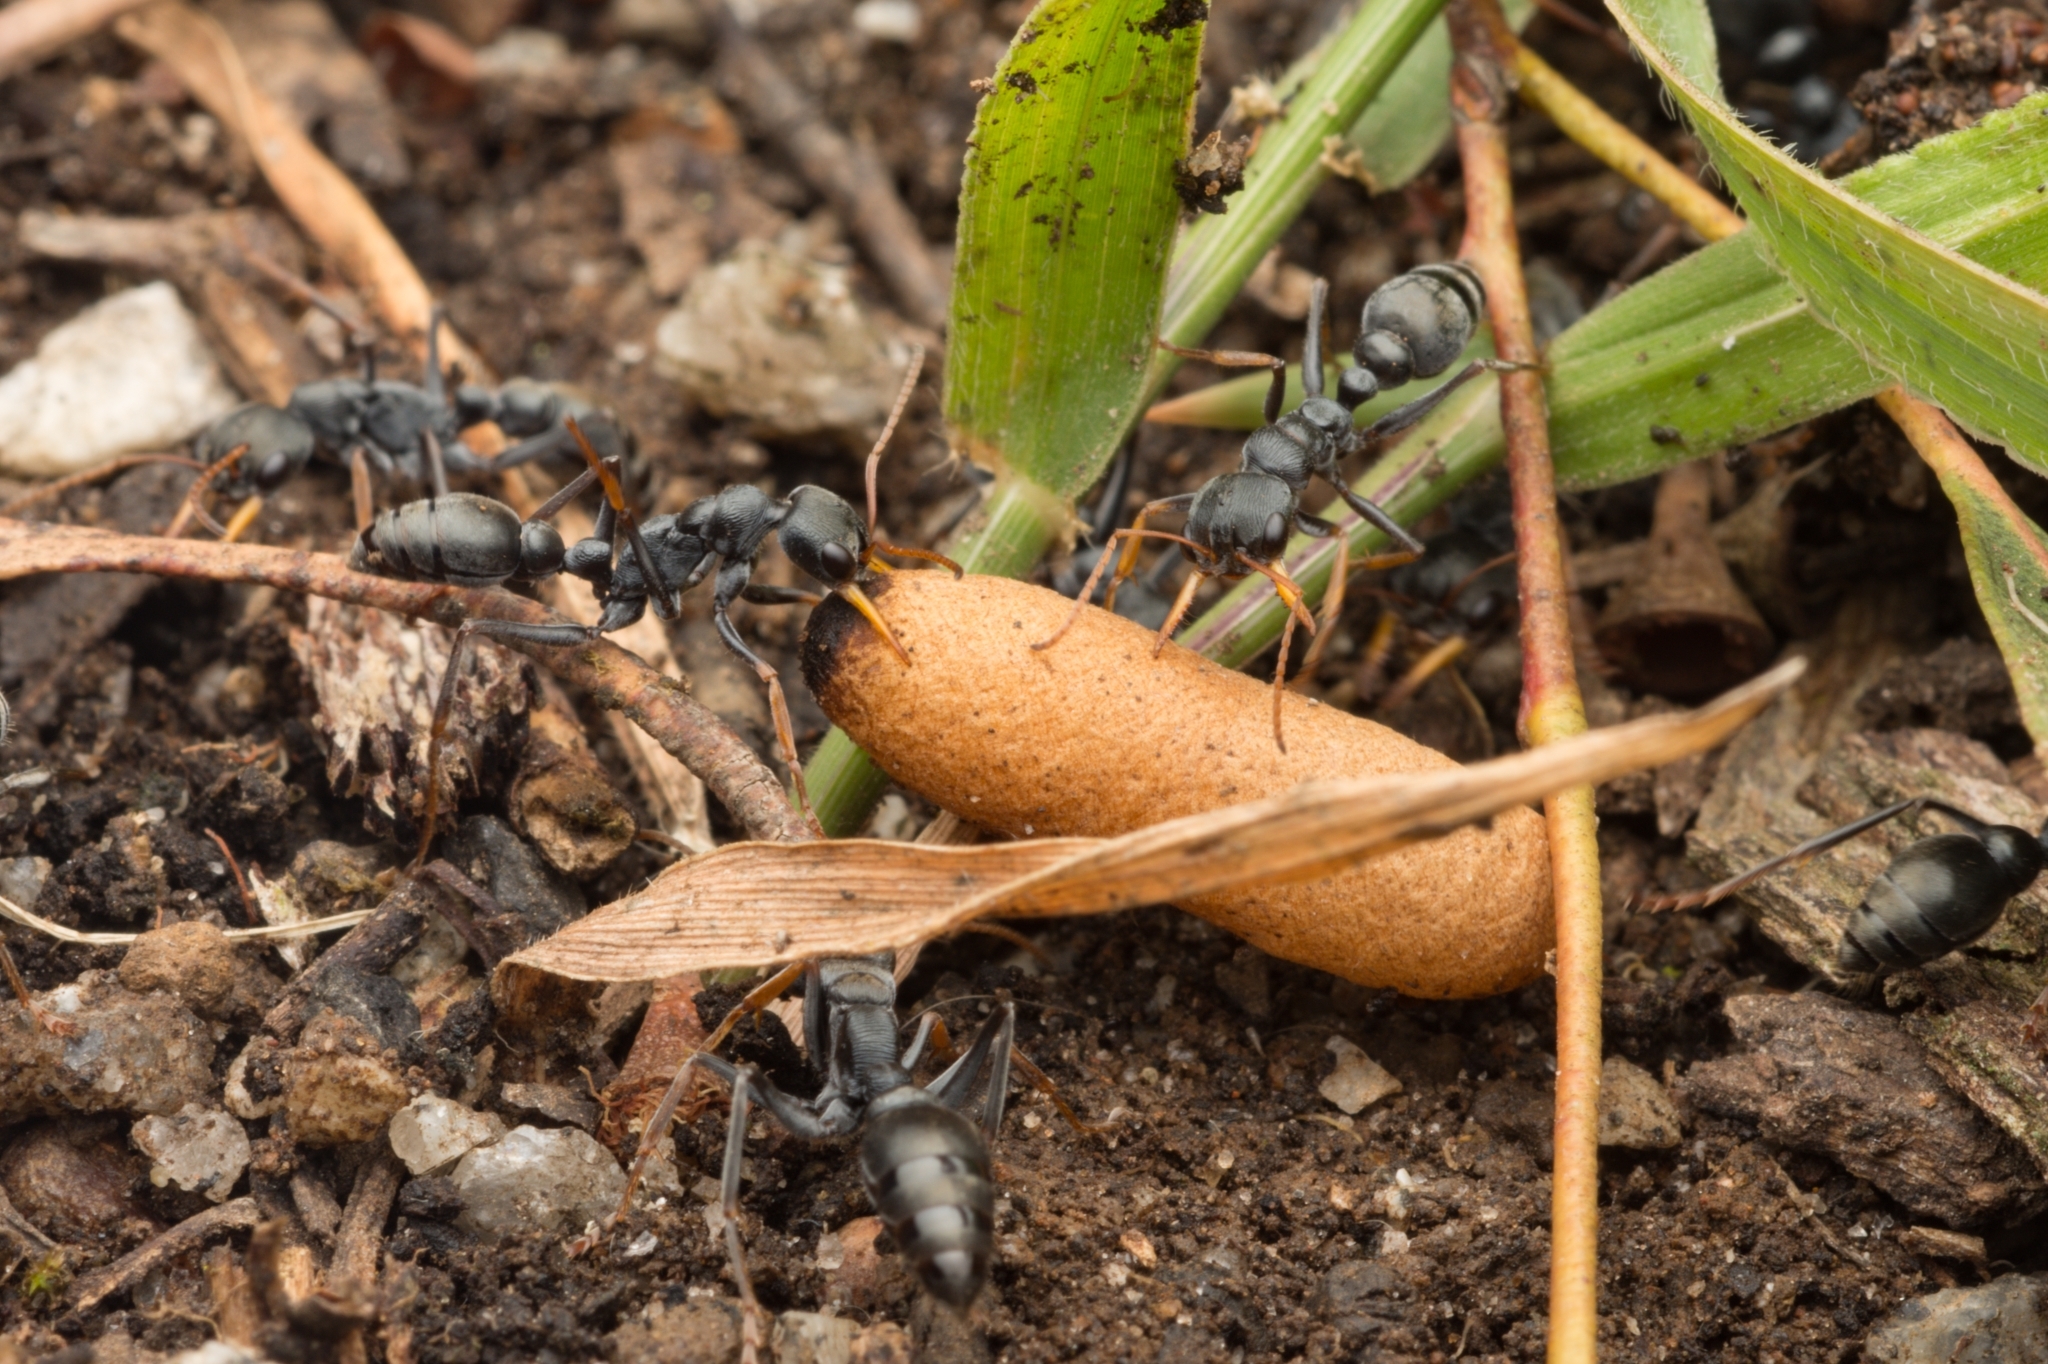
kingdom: Animalia
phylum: Arthropoda
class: Insecta
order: Hymenoptera
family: Formicidae
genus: Myrmecia
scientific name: Myrmecia pilosula
